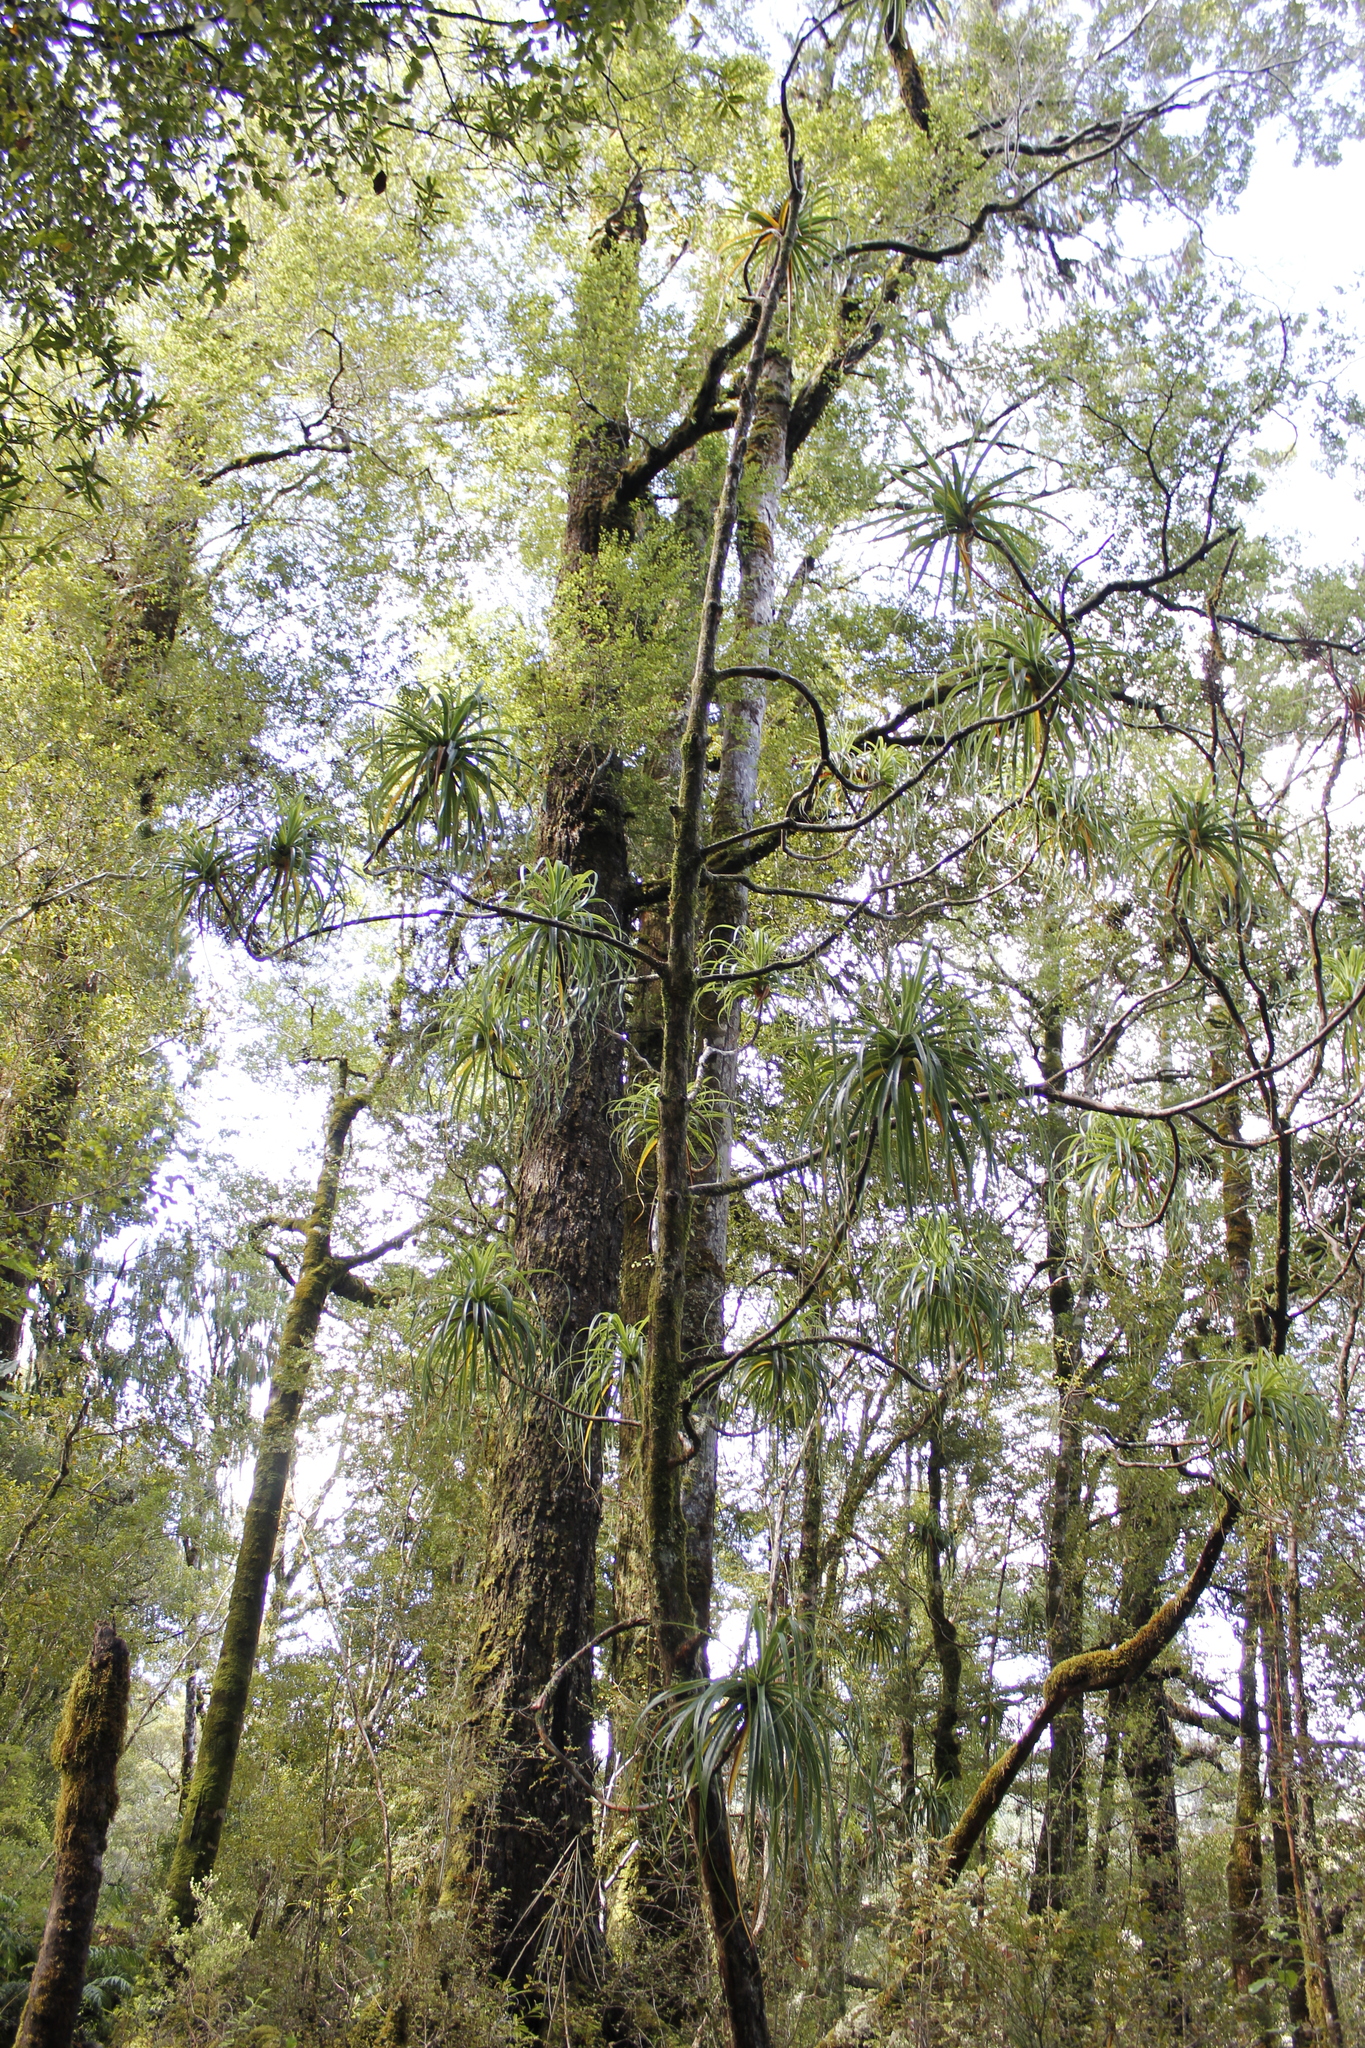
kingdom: Plantae
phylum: Tracheophyta
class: Magnoliopsida
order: Ericales
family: Ericaceae
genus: Dracophyllum
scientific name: Dracophyllum elegantissimum
